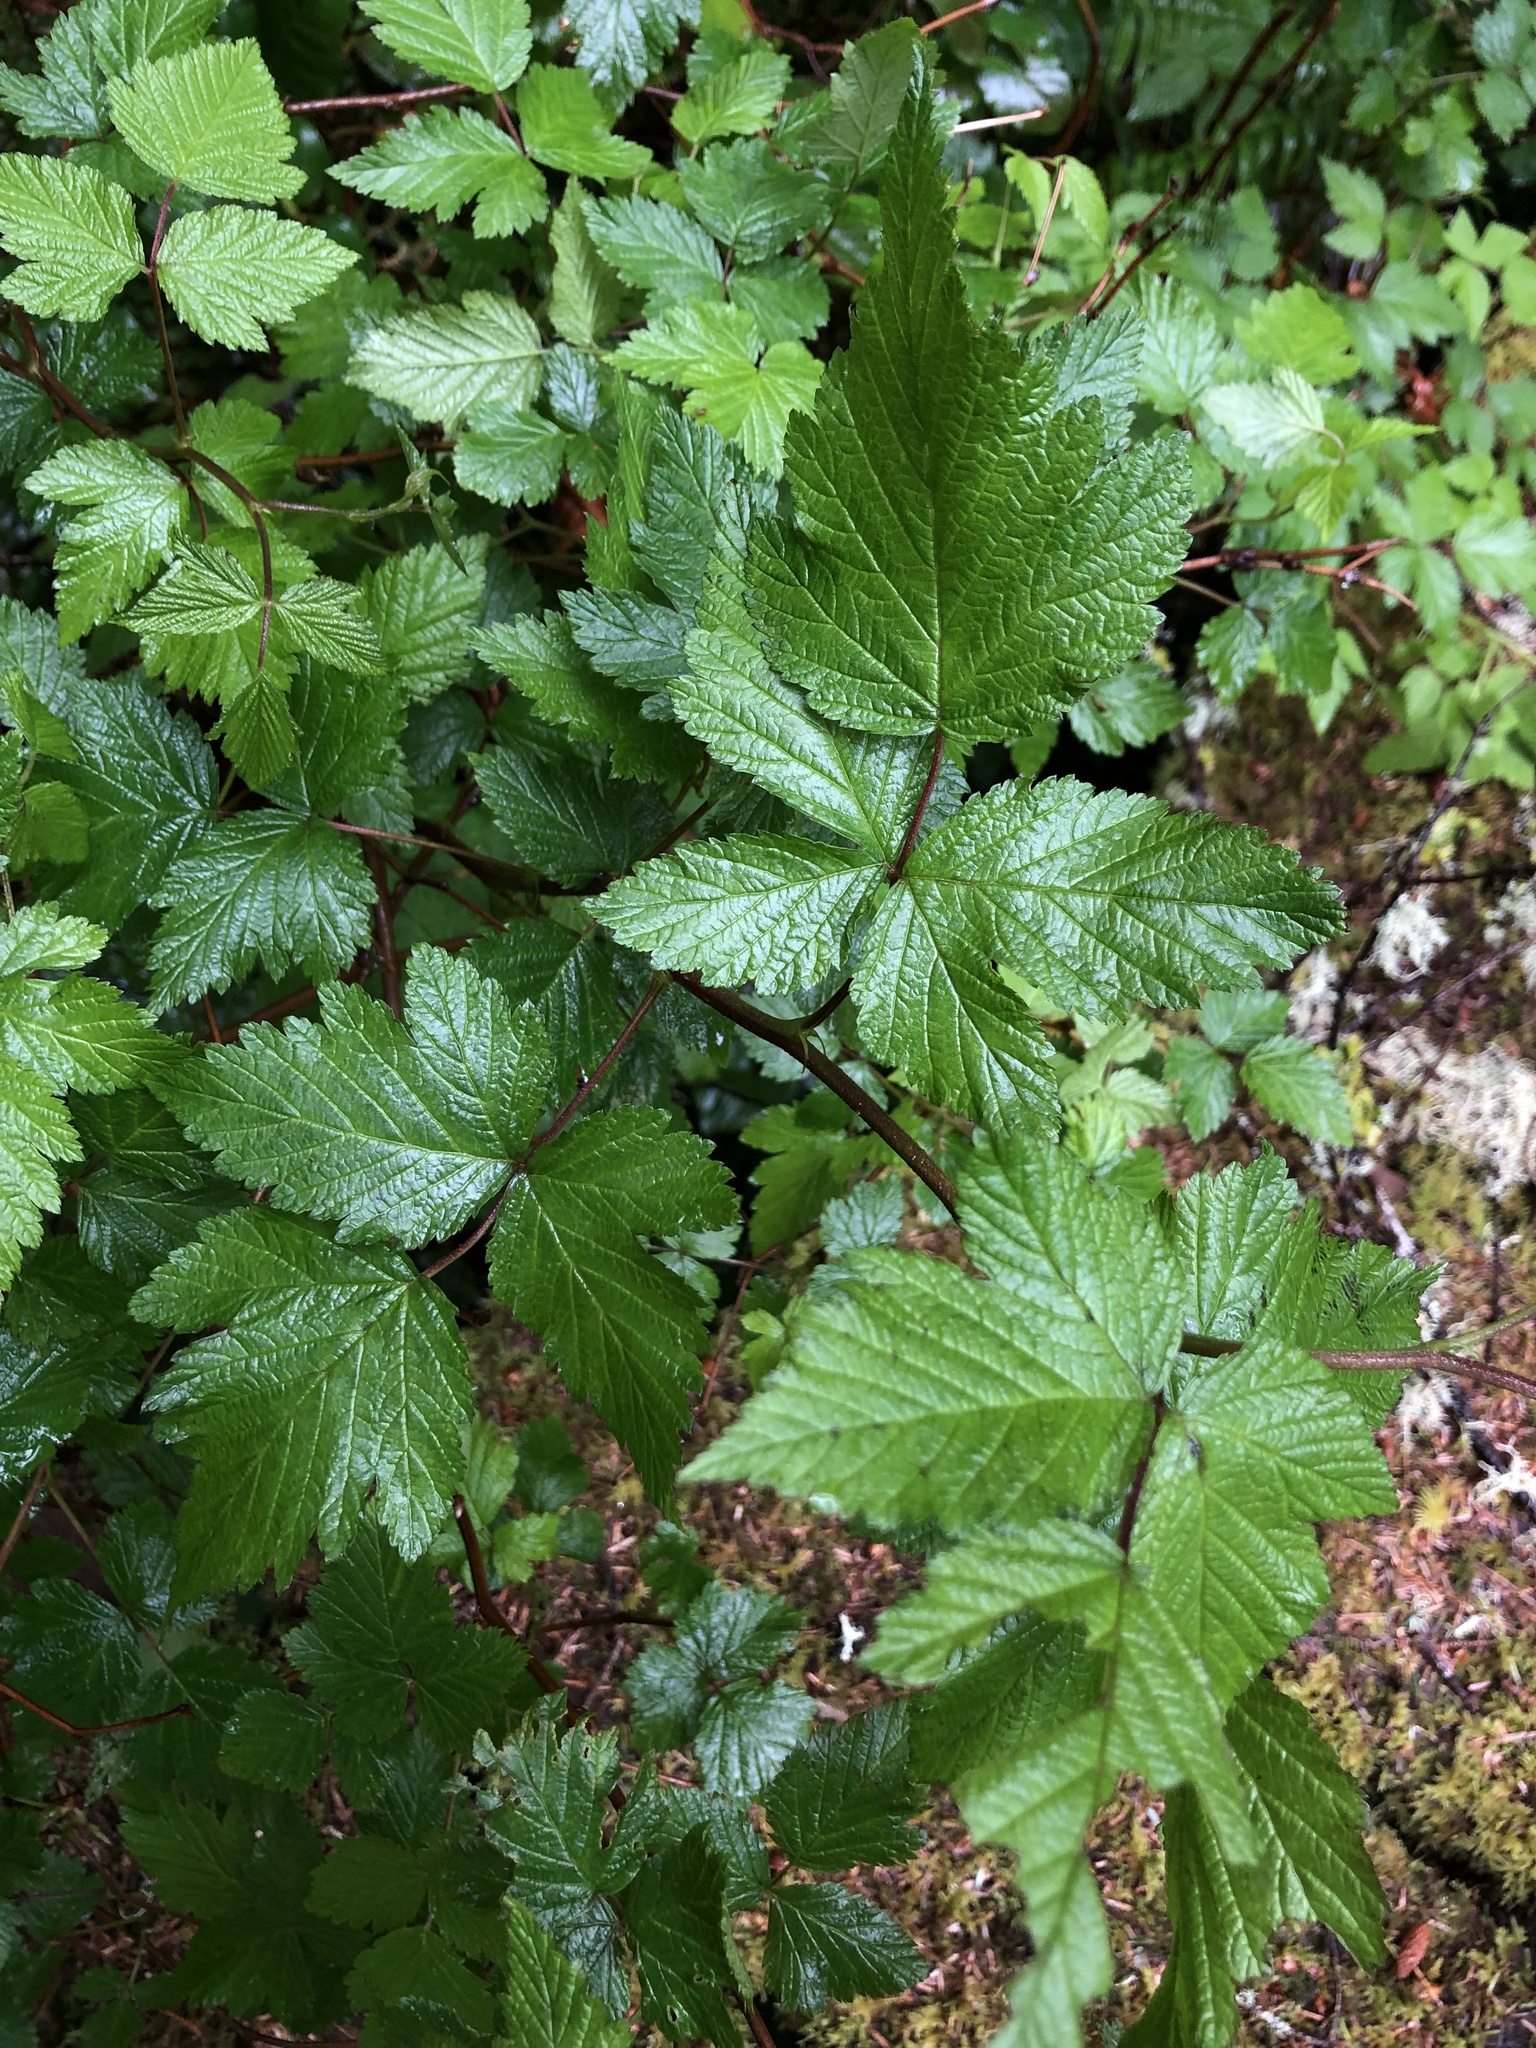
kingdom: Plantae
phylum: Tracheophyta
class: Magnoliopsida
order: Rosales
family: Rosaceae
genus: Rubus
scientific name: Rubus spectabilis
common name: Salmonberry
